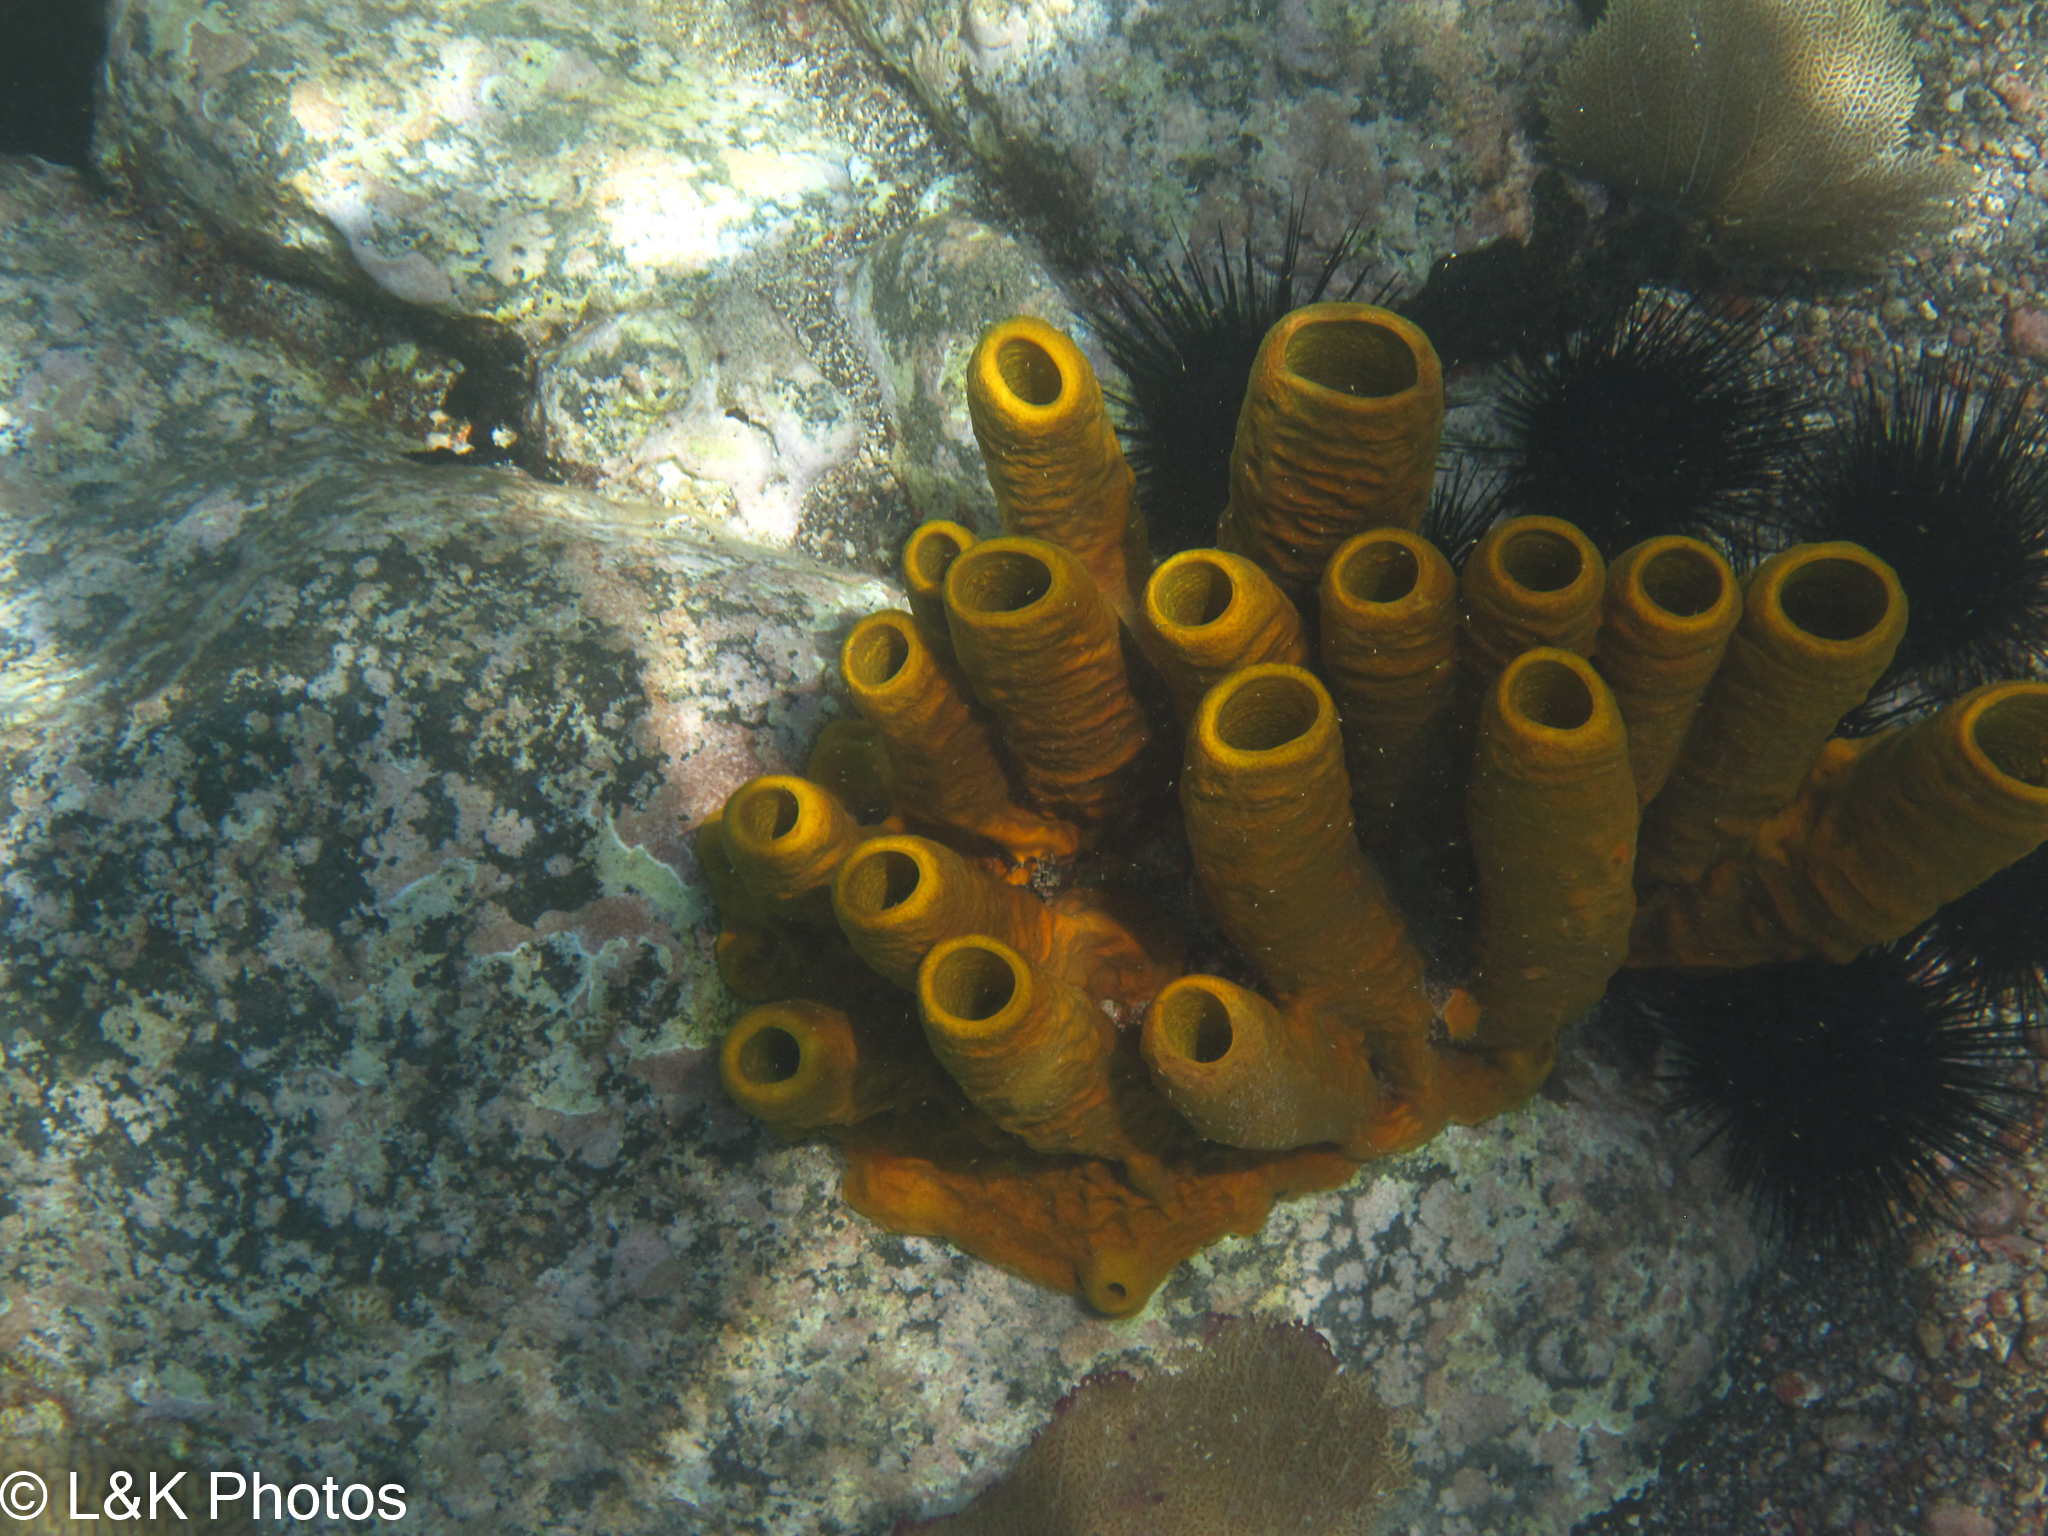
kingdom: Animalia
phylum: Porifera
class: Demospongiae
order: Verongiida
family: Aplysinidae
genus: Aplysina
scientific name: Aplysina fistularis
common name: Candle sponge
